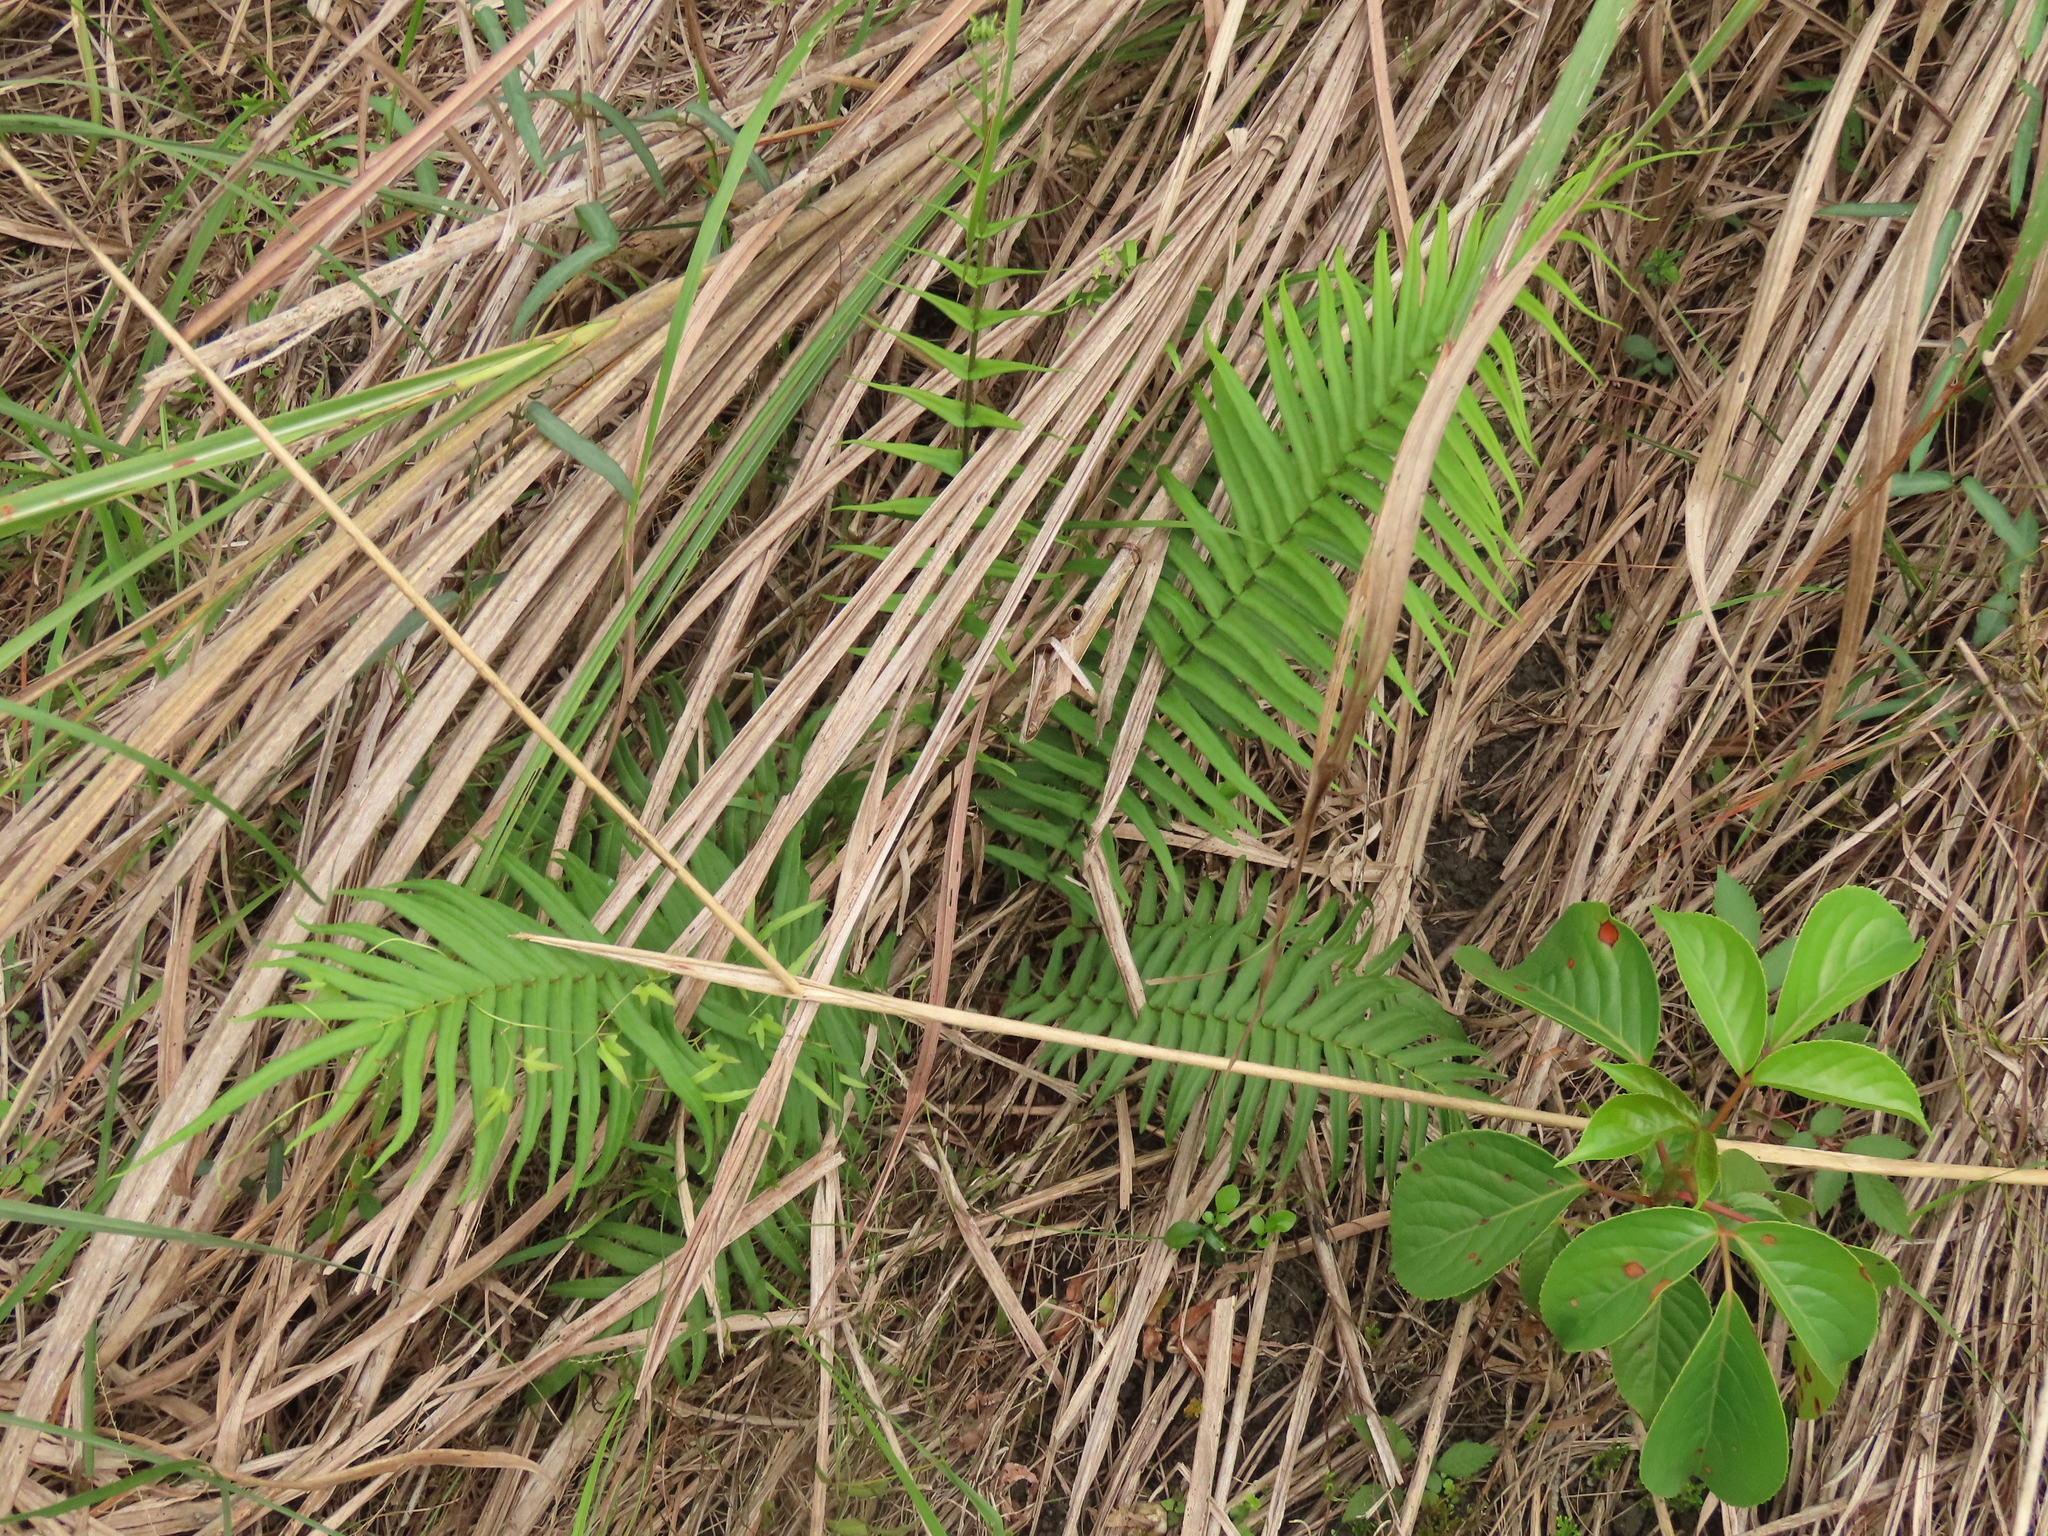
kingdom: Plantae
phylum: Tracheophyta
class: Magnoliopsida
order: Malpighiales
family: Phyllanthaceae
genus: Bischofia
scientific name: Bischofia javanica
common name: Javanese bishopwood
